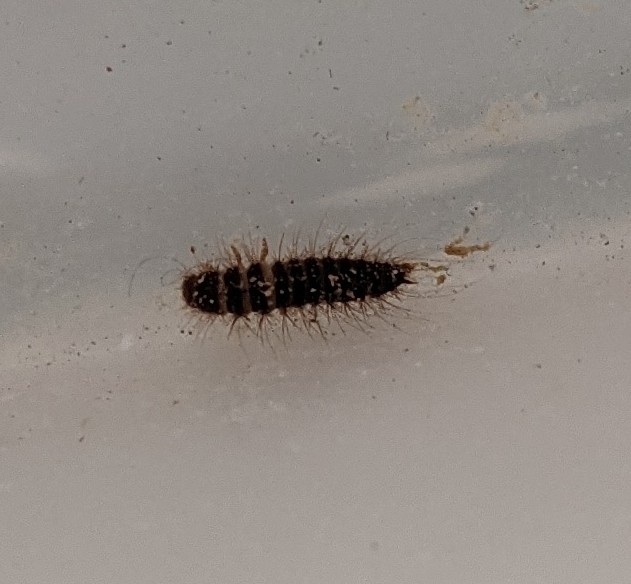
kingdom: Animalia
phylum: Arthropoda
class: Insecta
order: Coleoptera
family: Dermestidae
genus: Dermestes
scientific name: Dermestes lardarius
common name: Larder beetle
